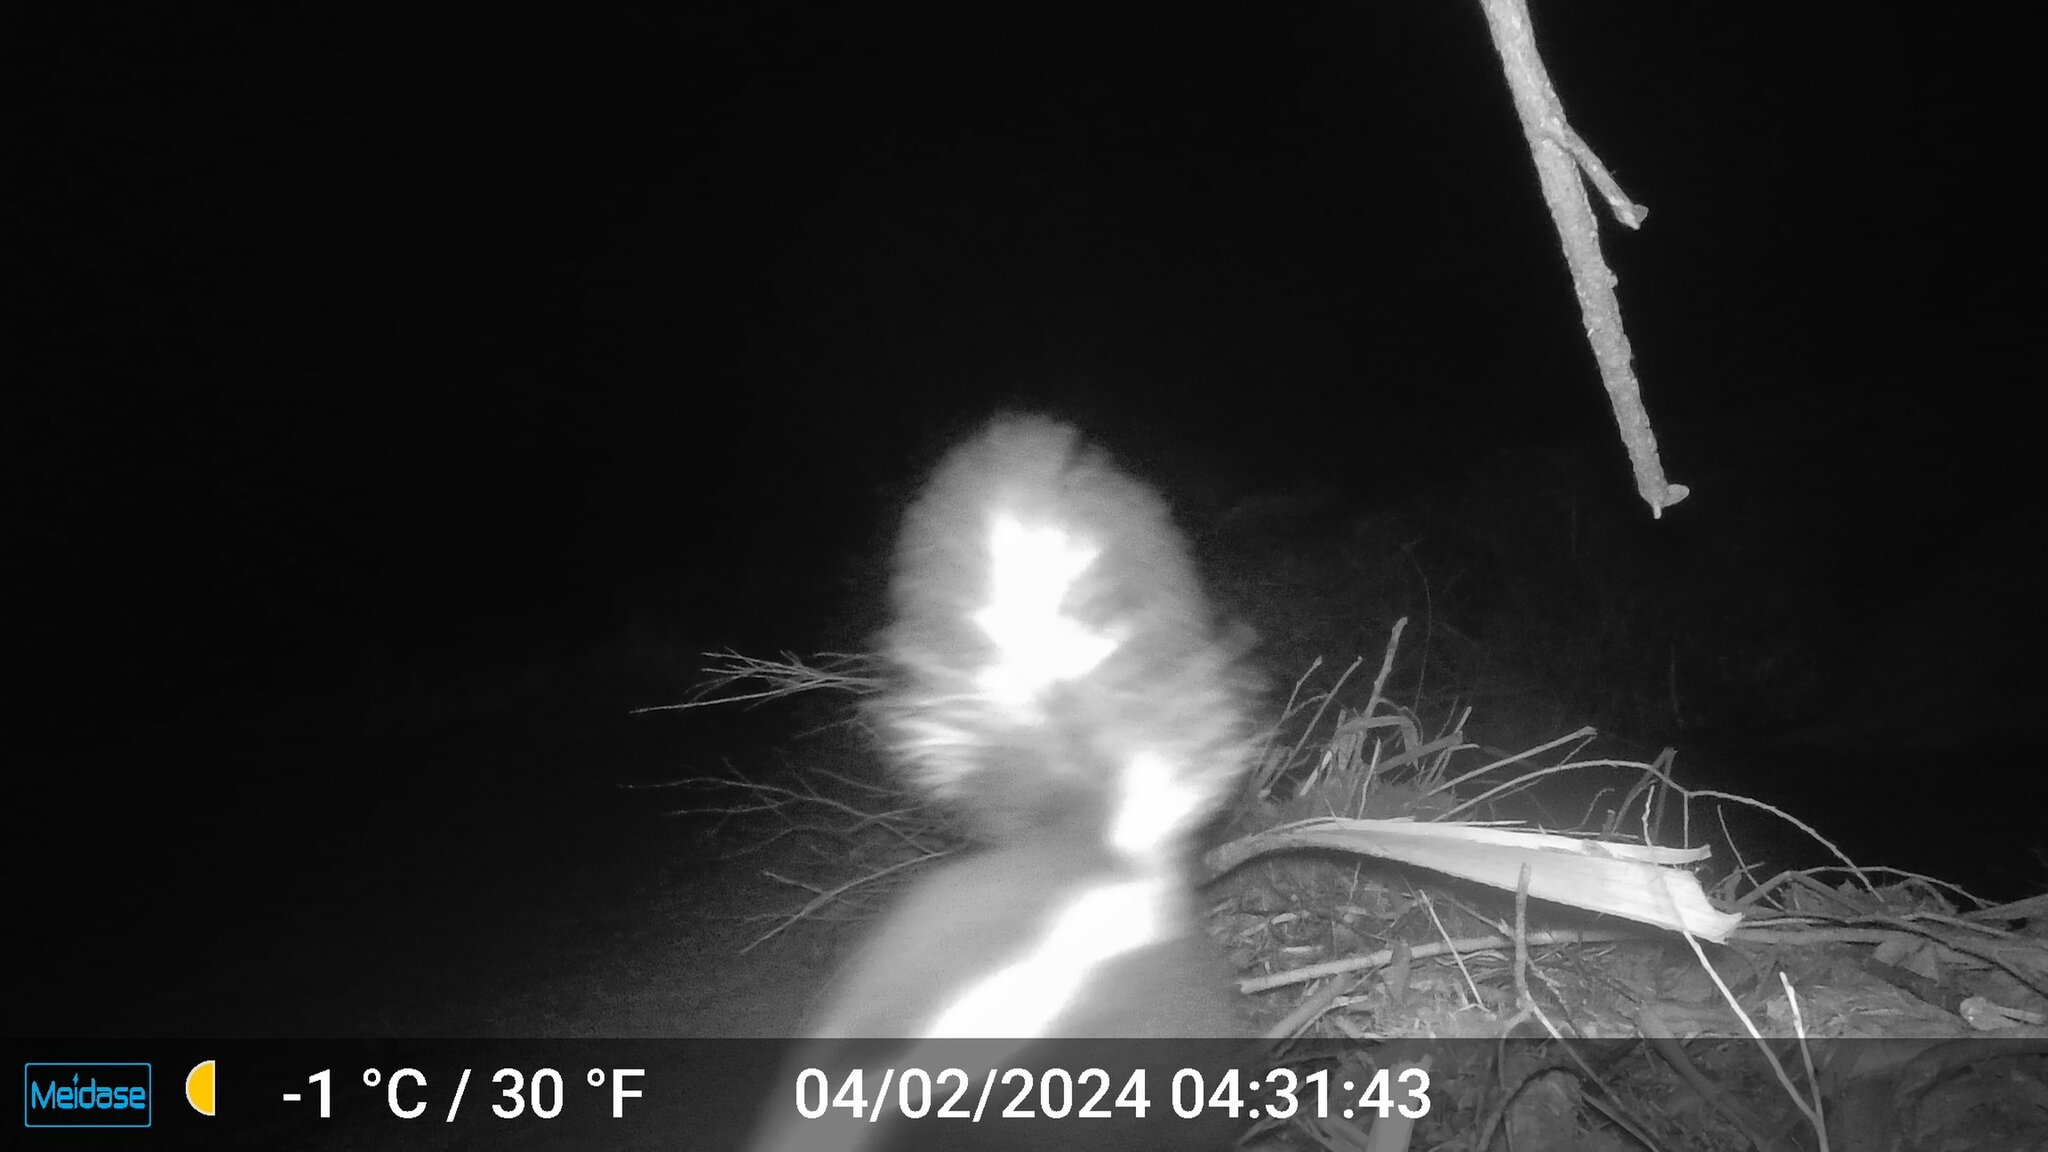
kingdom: Animalia
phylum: Chordata
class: Mammalia
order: Carnivora
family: Mephitidae
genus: Mephitis
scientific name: Mephitis mephitis
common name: Striped skunk
